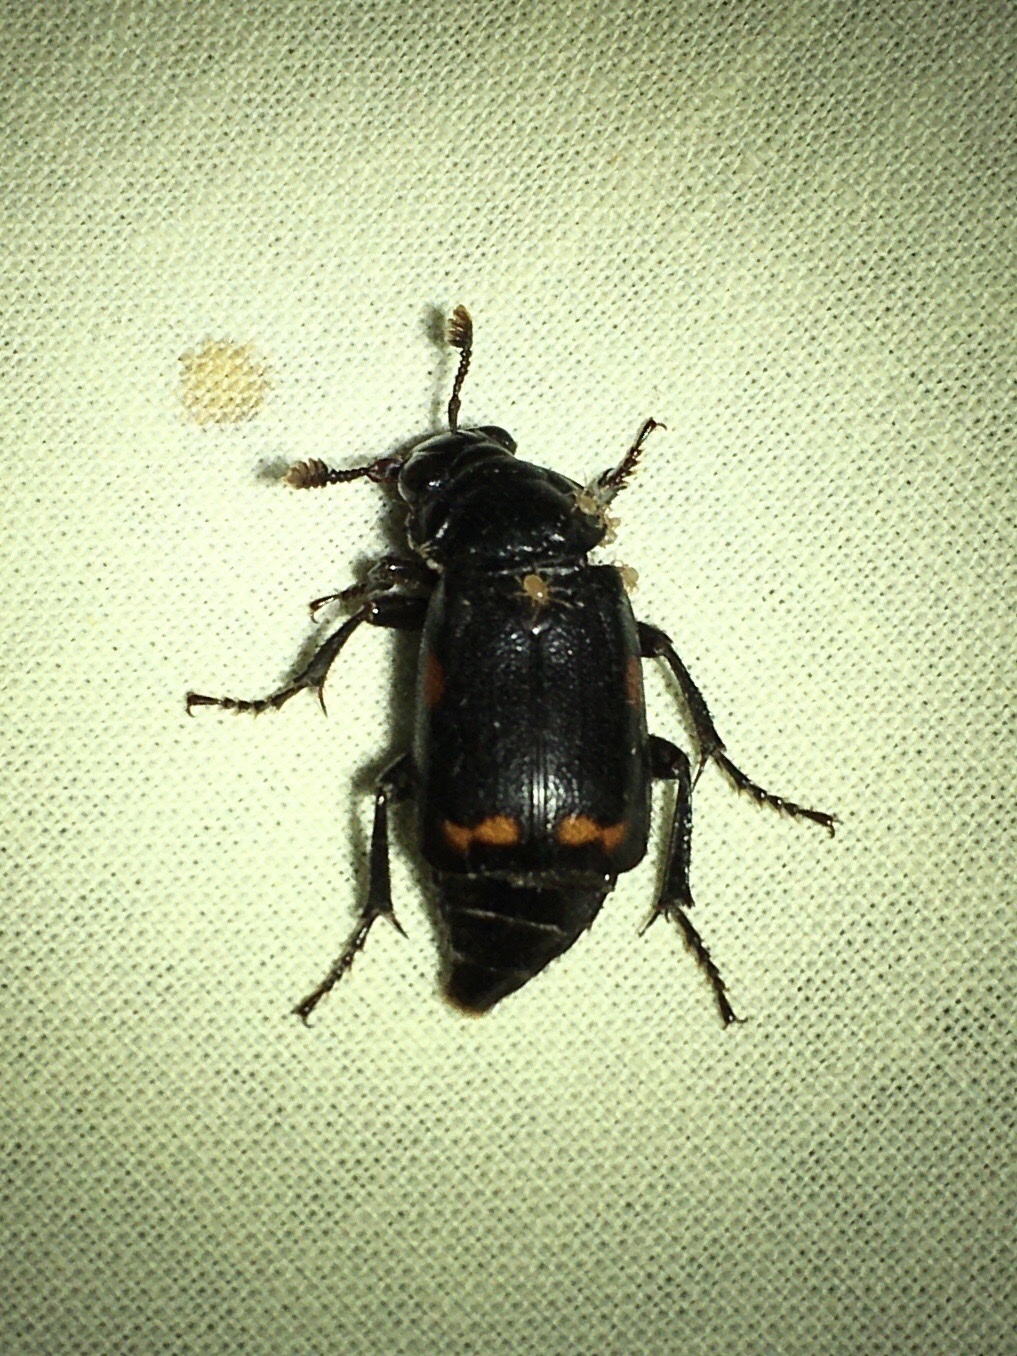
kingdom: Animalia
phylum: Arthropoda
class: Insecta
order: Coleoptera
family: Staphylinidae
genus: Nicrophorus
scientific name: Nicrophorus pustulatus
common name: Pustulated carrion beetle
